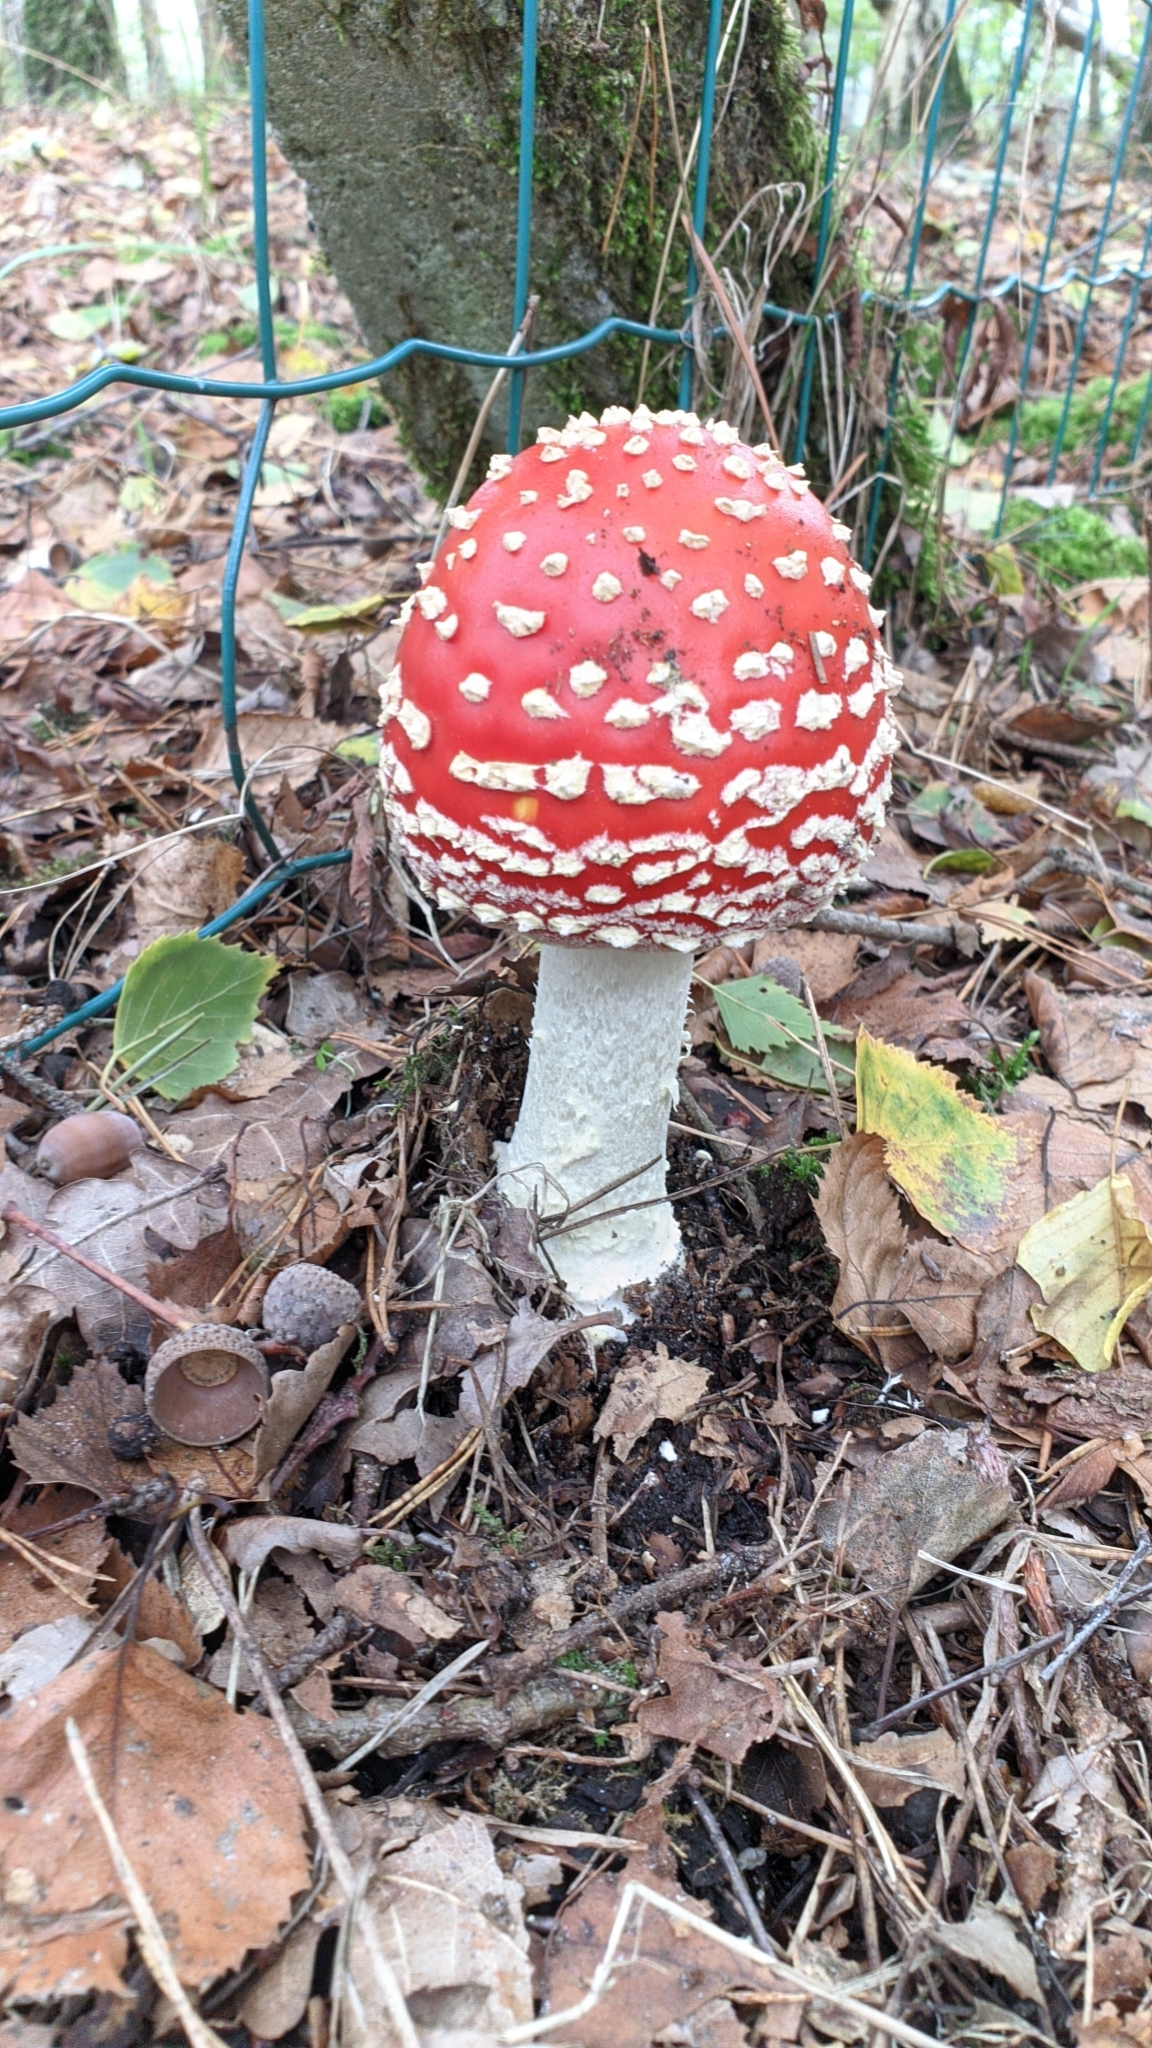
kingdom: Fungi
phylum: Basidiomycota
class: Agaricomycetes
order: Agaricales
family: Amanitaceae
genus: Amanita
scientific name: Amanita muscaria
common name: Fly agaric
